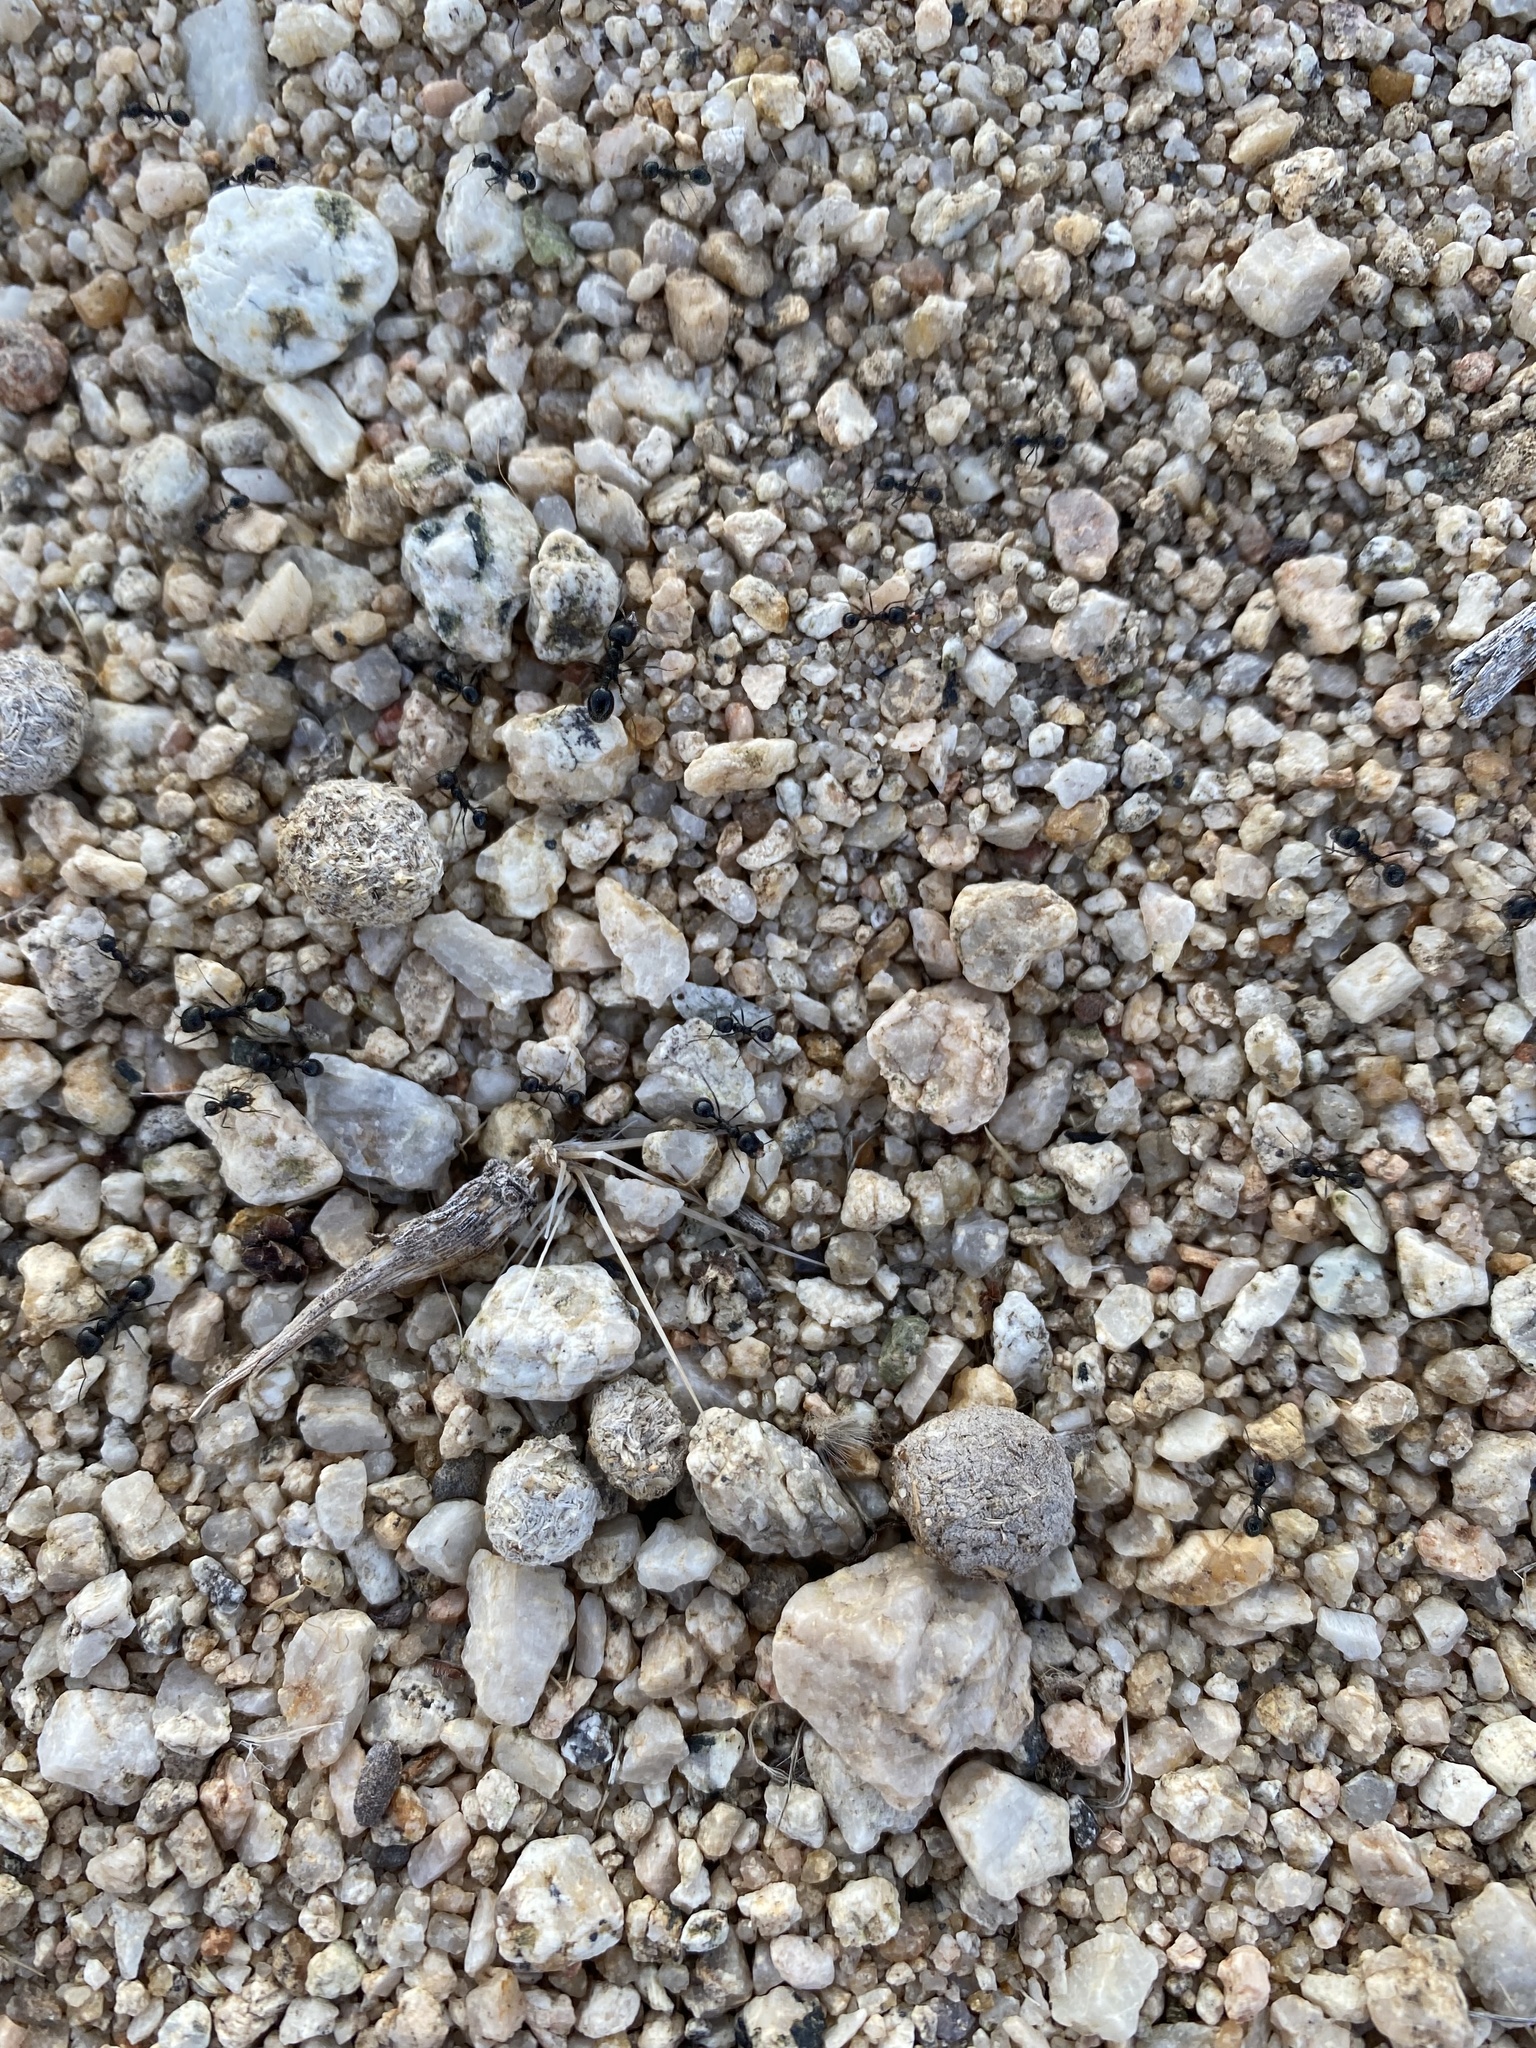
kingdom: Animalia
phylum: Arthropoda
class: Insecta
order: Hymenoptera
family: Formicidae
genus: Messor
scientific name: Messor pergandei
